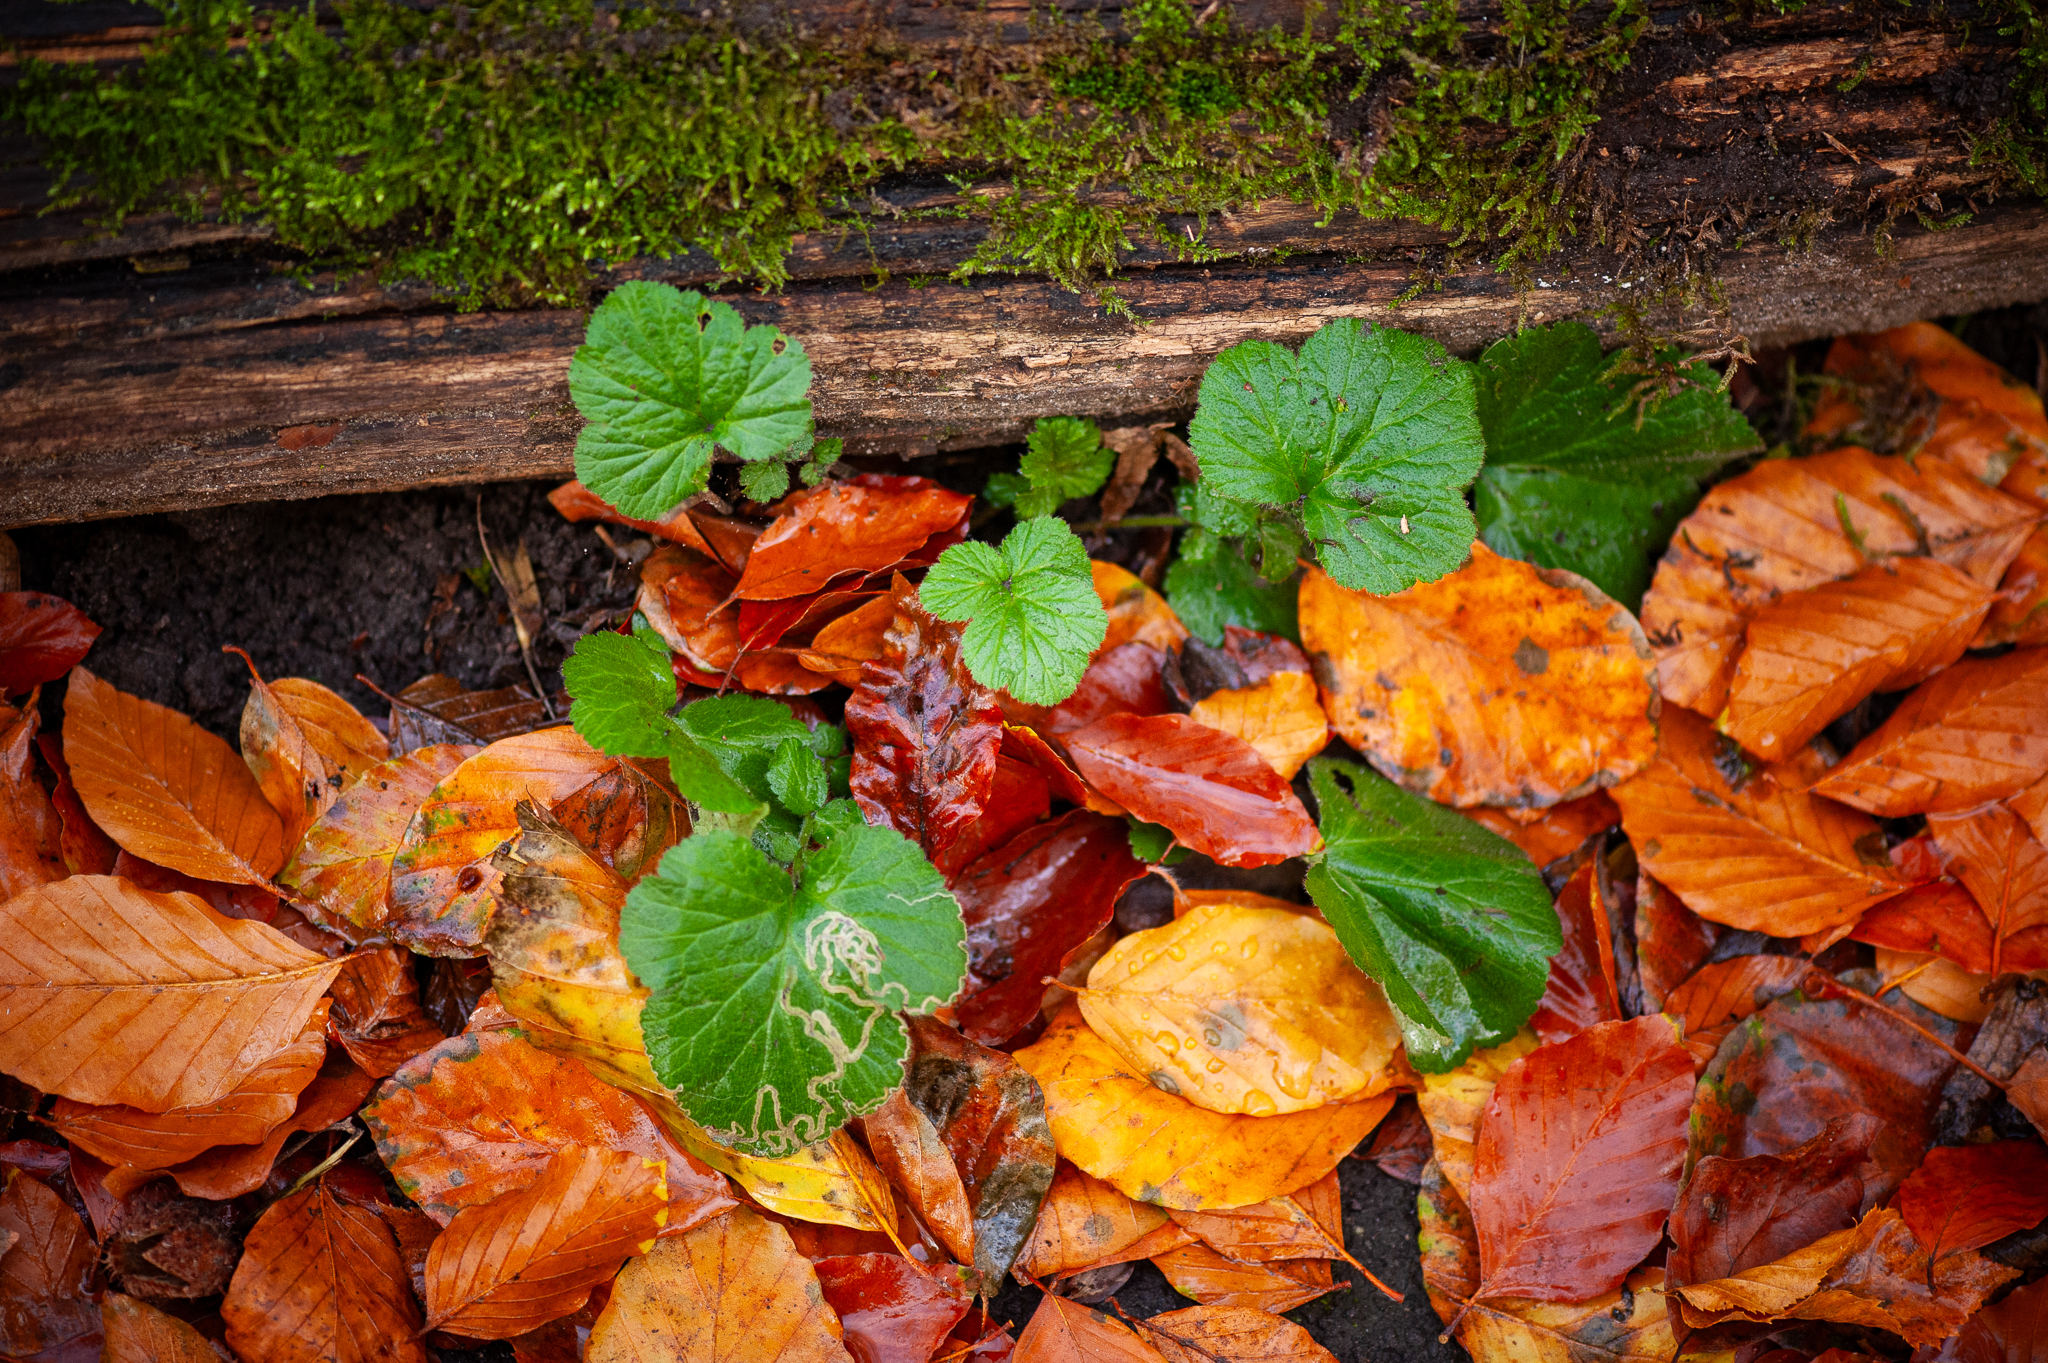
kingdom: Plantae
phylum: Tracheophyta
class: Magnoliopsida
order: Rosales
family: Rosaceae
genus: Geum
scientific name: Geum urbanum
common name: Wood avens
